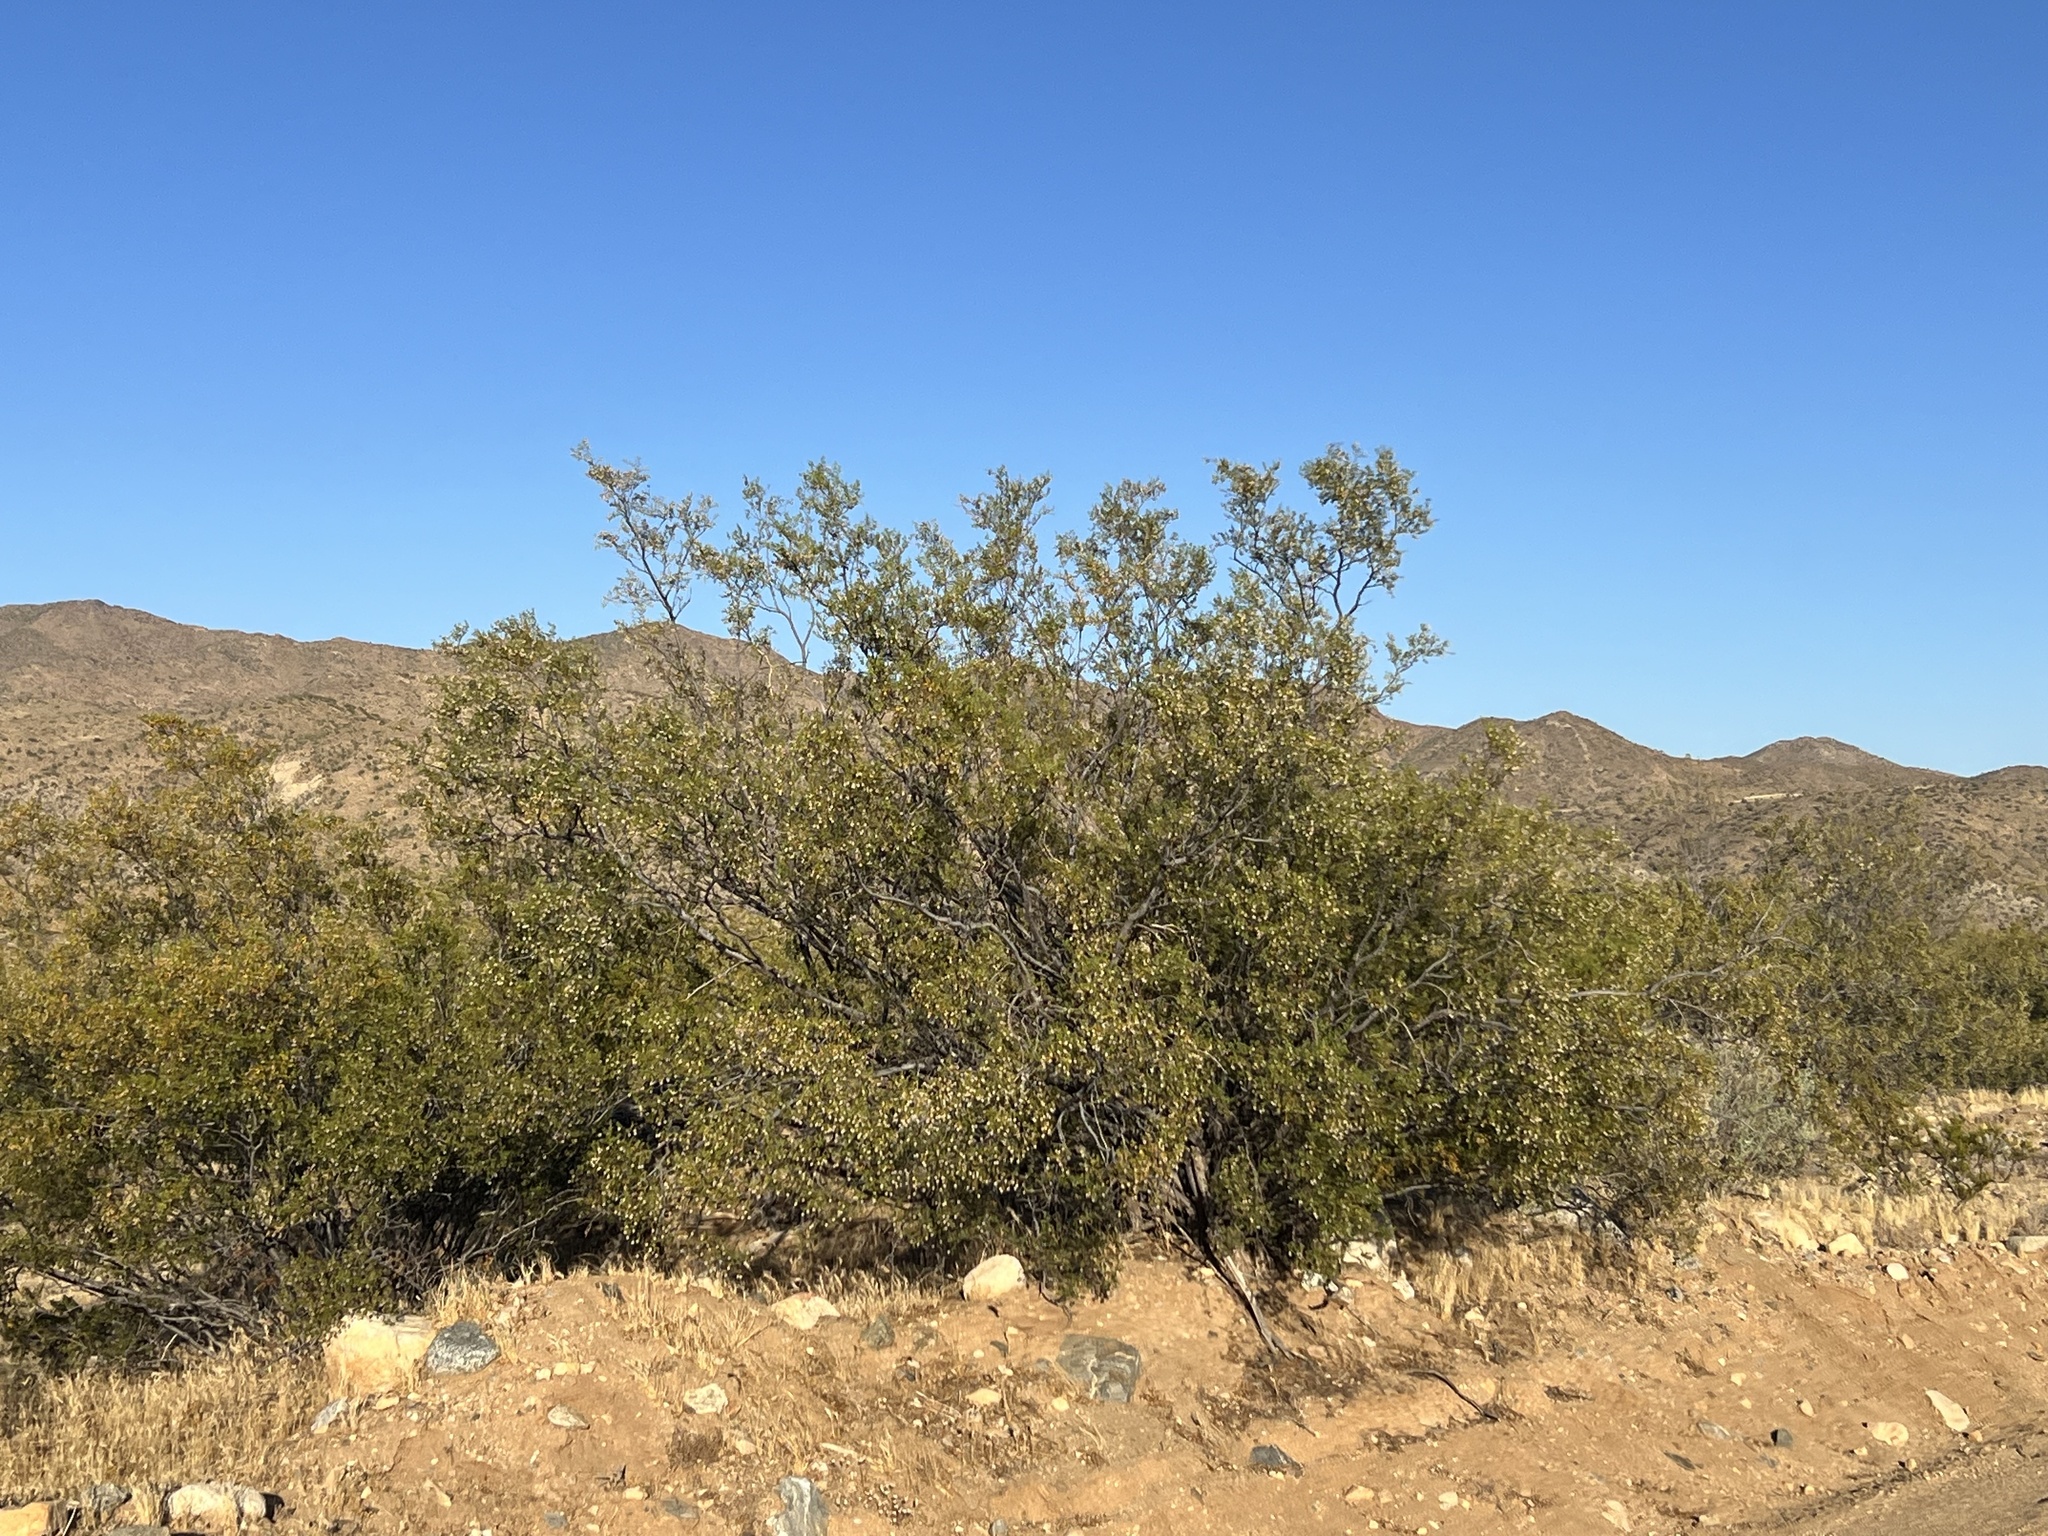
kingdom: Plantae
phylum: Tracheophyta
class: Magnoliopsida
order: Zygophyllales
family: Zygophyllaceae
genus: Larrea
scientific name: Larrea tridentata
